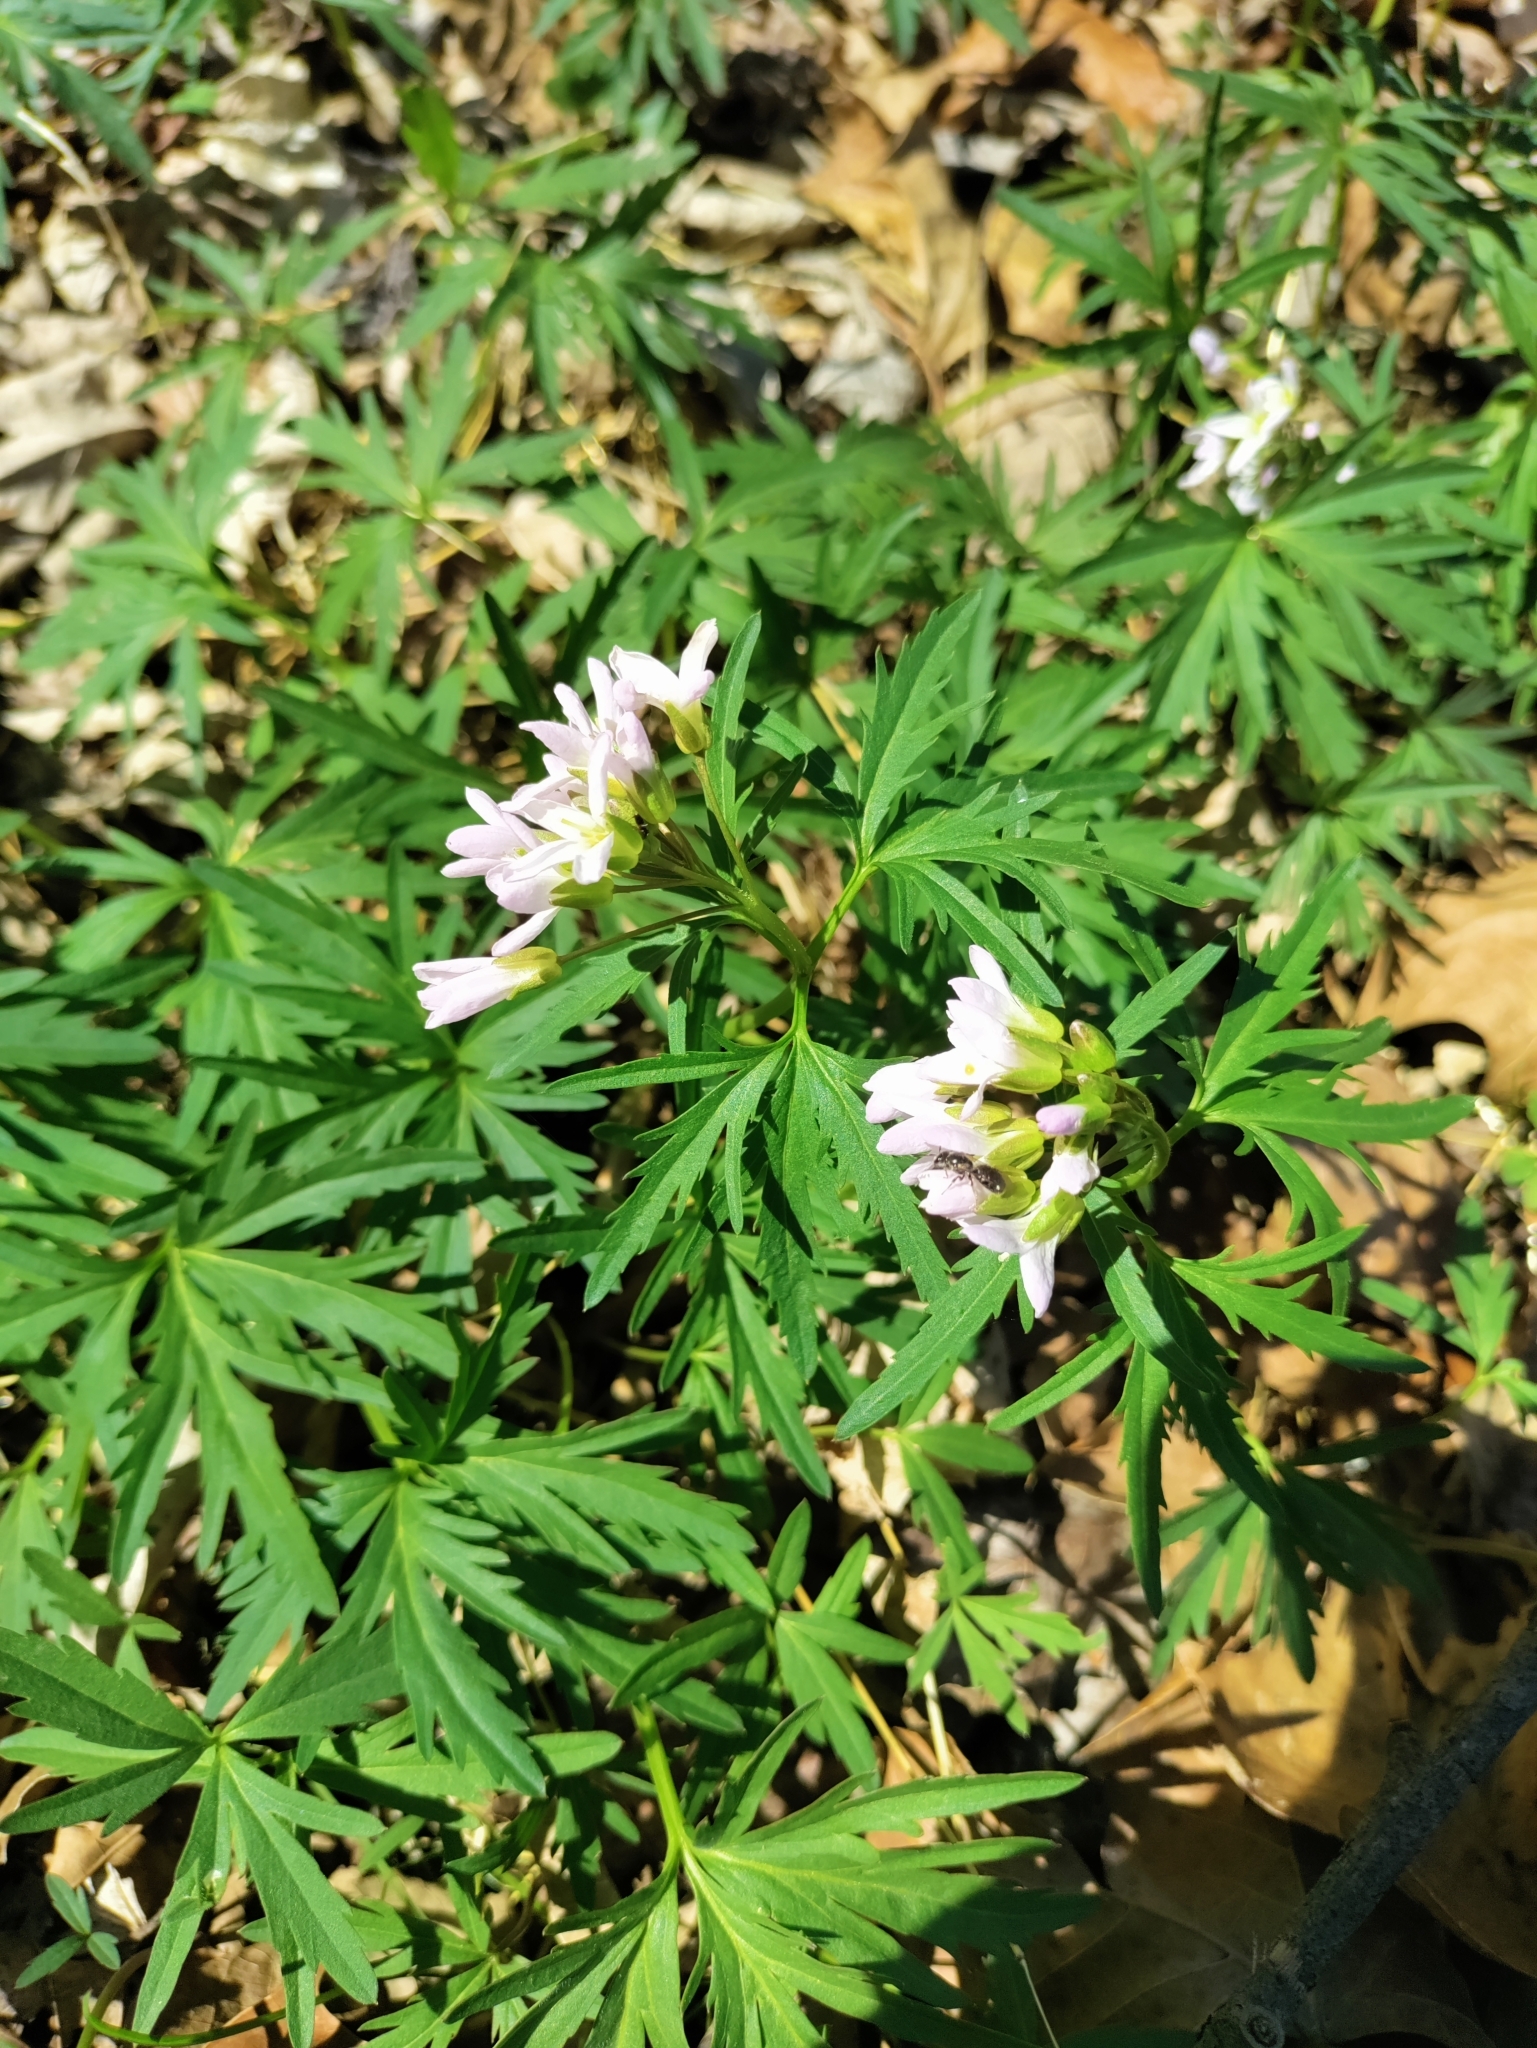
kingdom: Plantae
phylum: Tracheophyta
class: Magnoliopsida
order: Brassicales
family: Brassicaceae
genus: Cardamine
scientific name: Cardamine concatenata
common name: Cut-leaf toothcup
